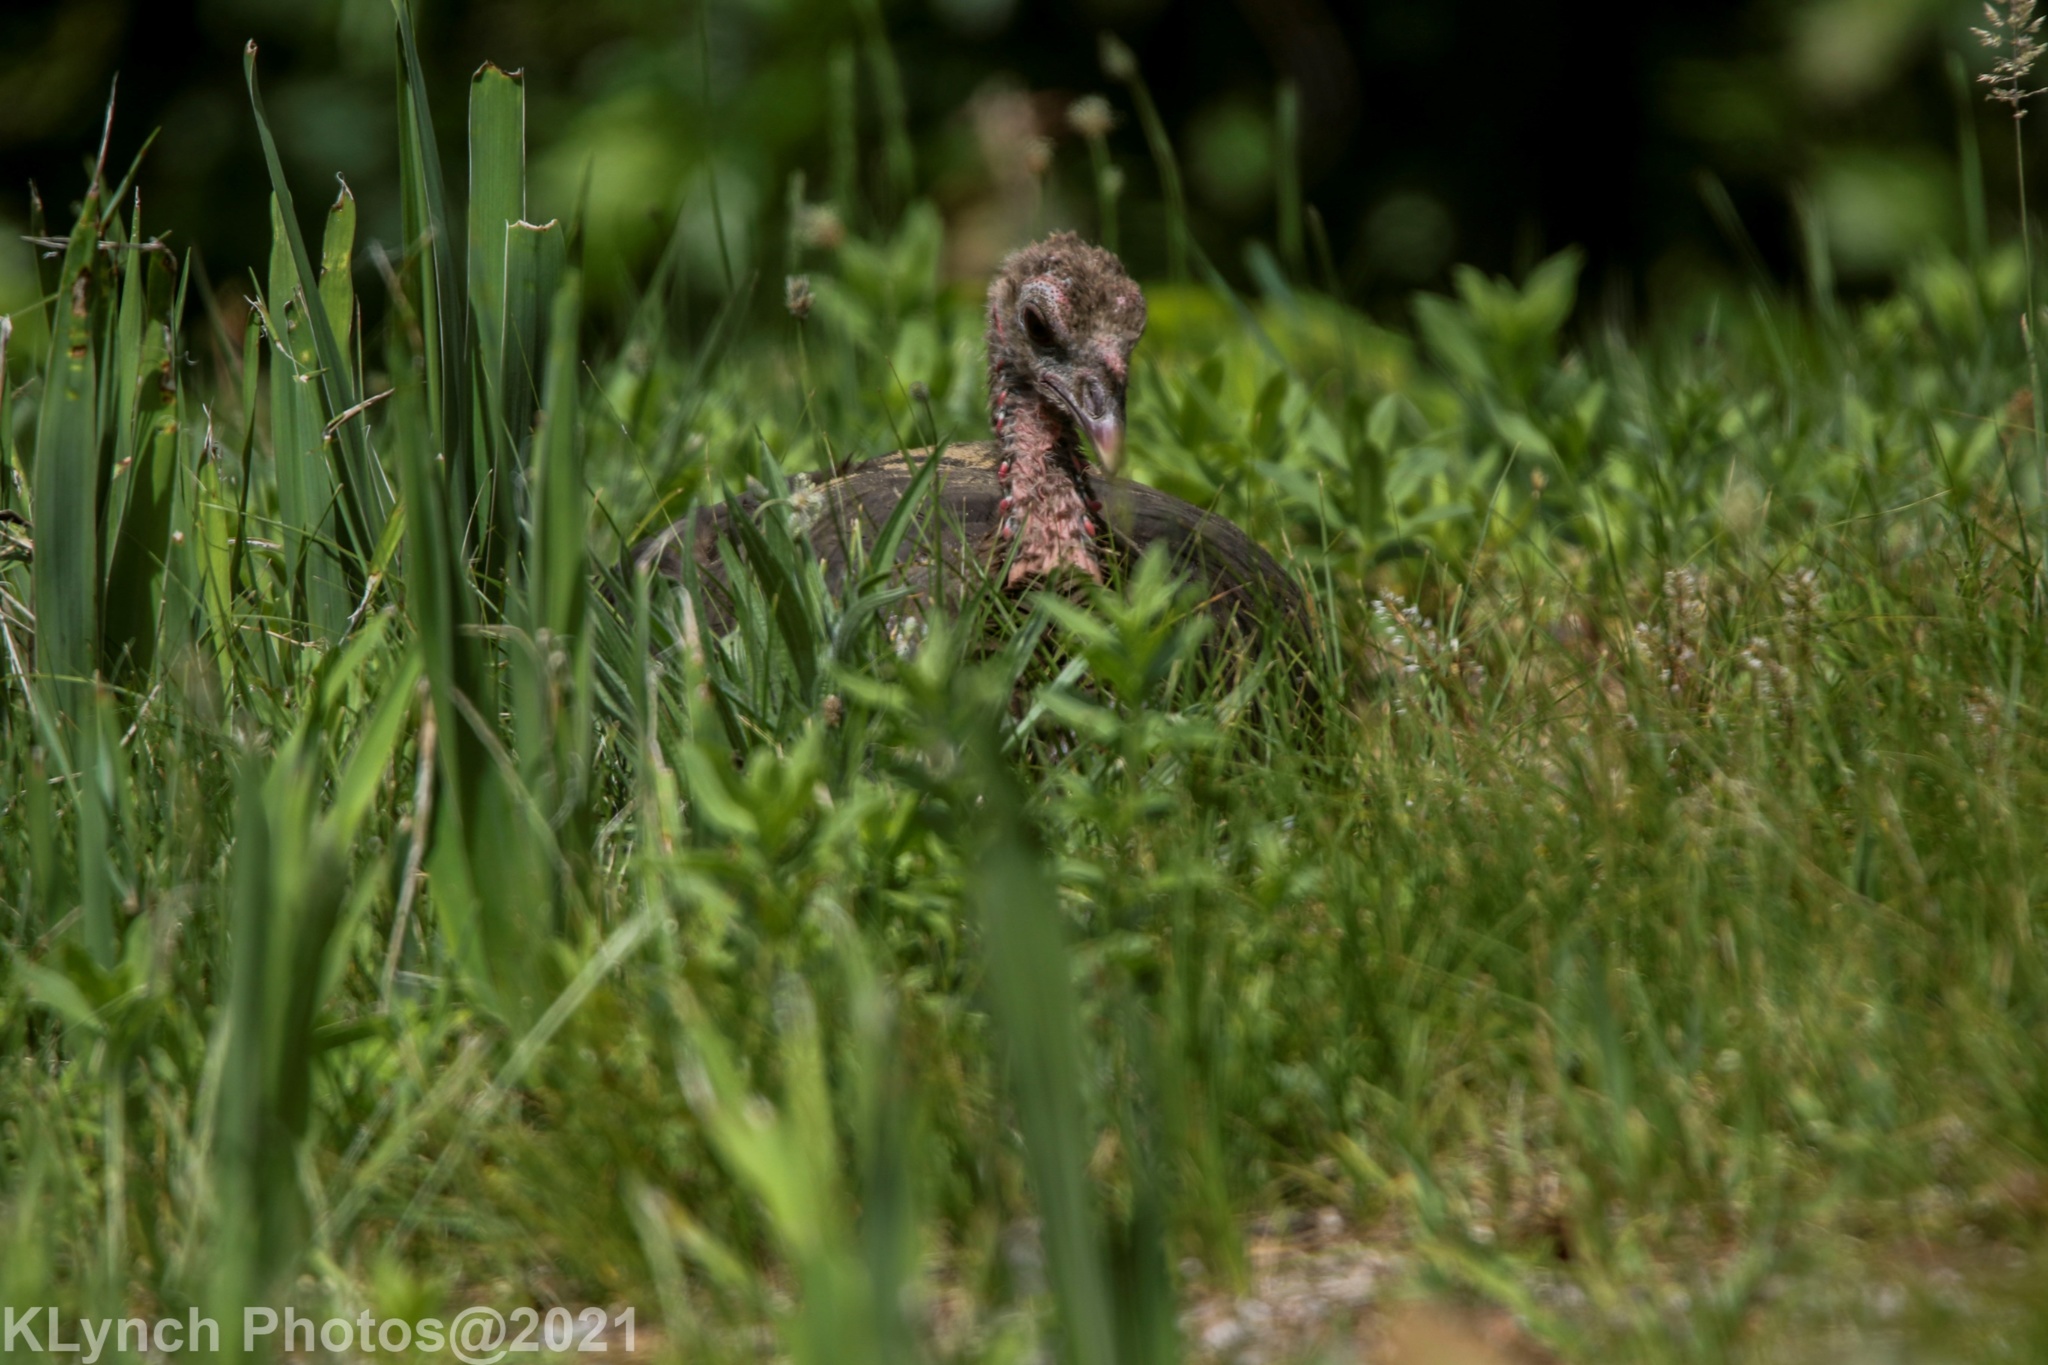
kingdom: Animalia
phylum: Chordata
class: Aves
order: Galliformes
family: Phasianidae
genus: Meleagris
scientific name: Meleagris gallopavo
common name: Wild turkey
